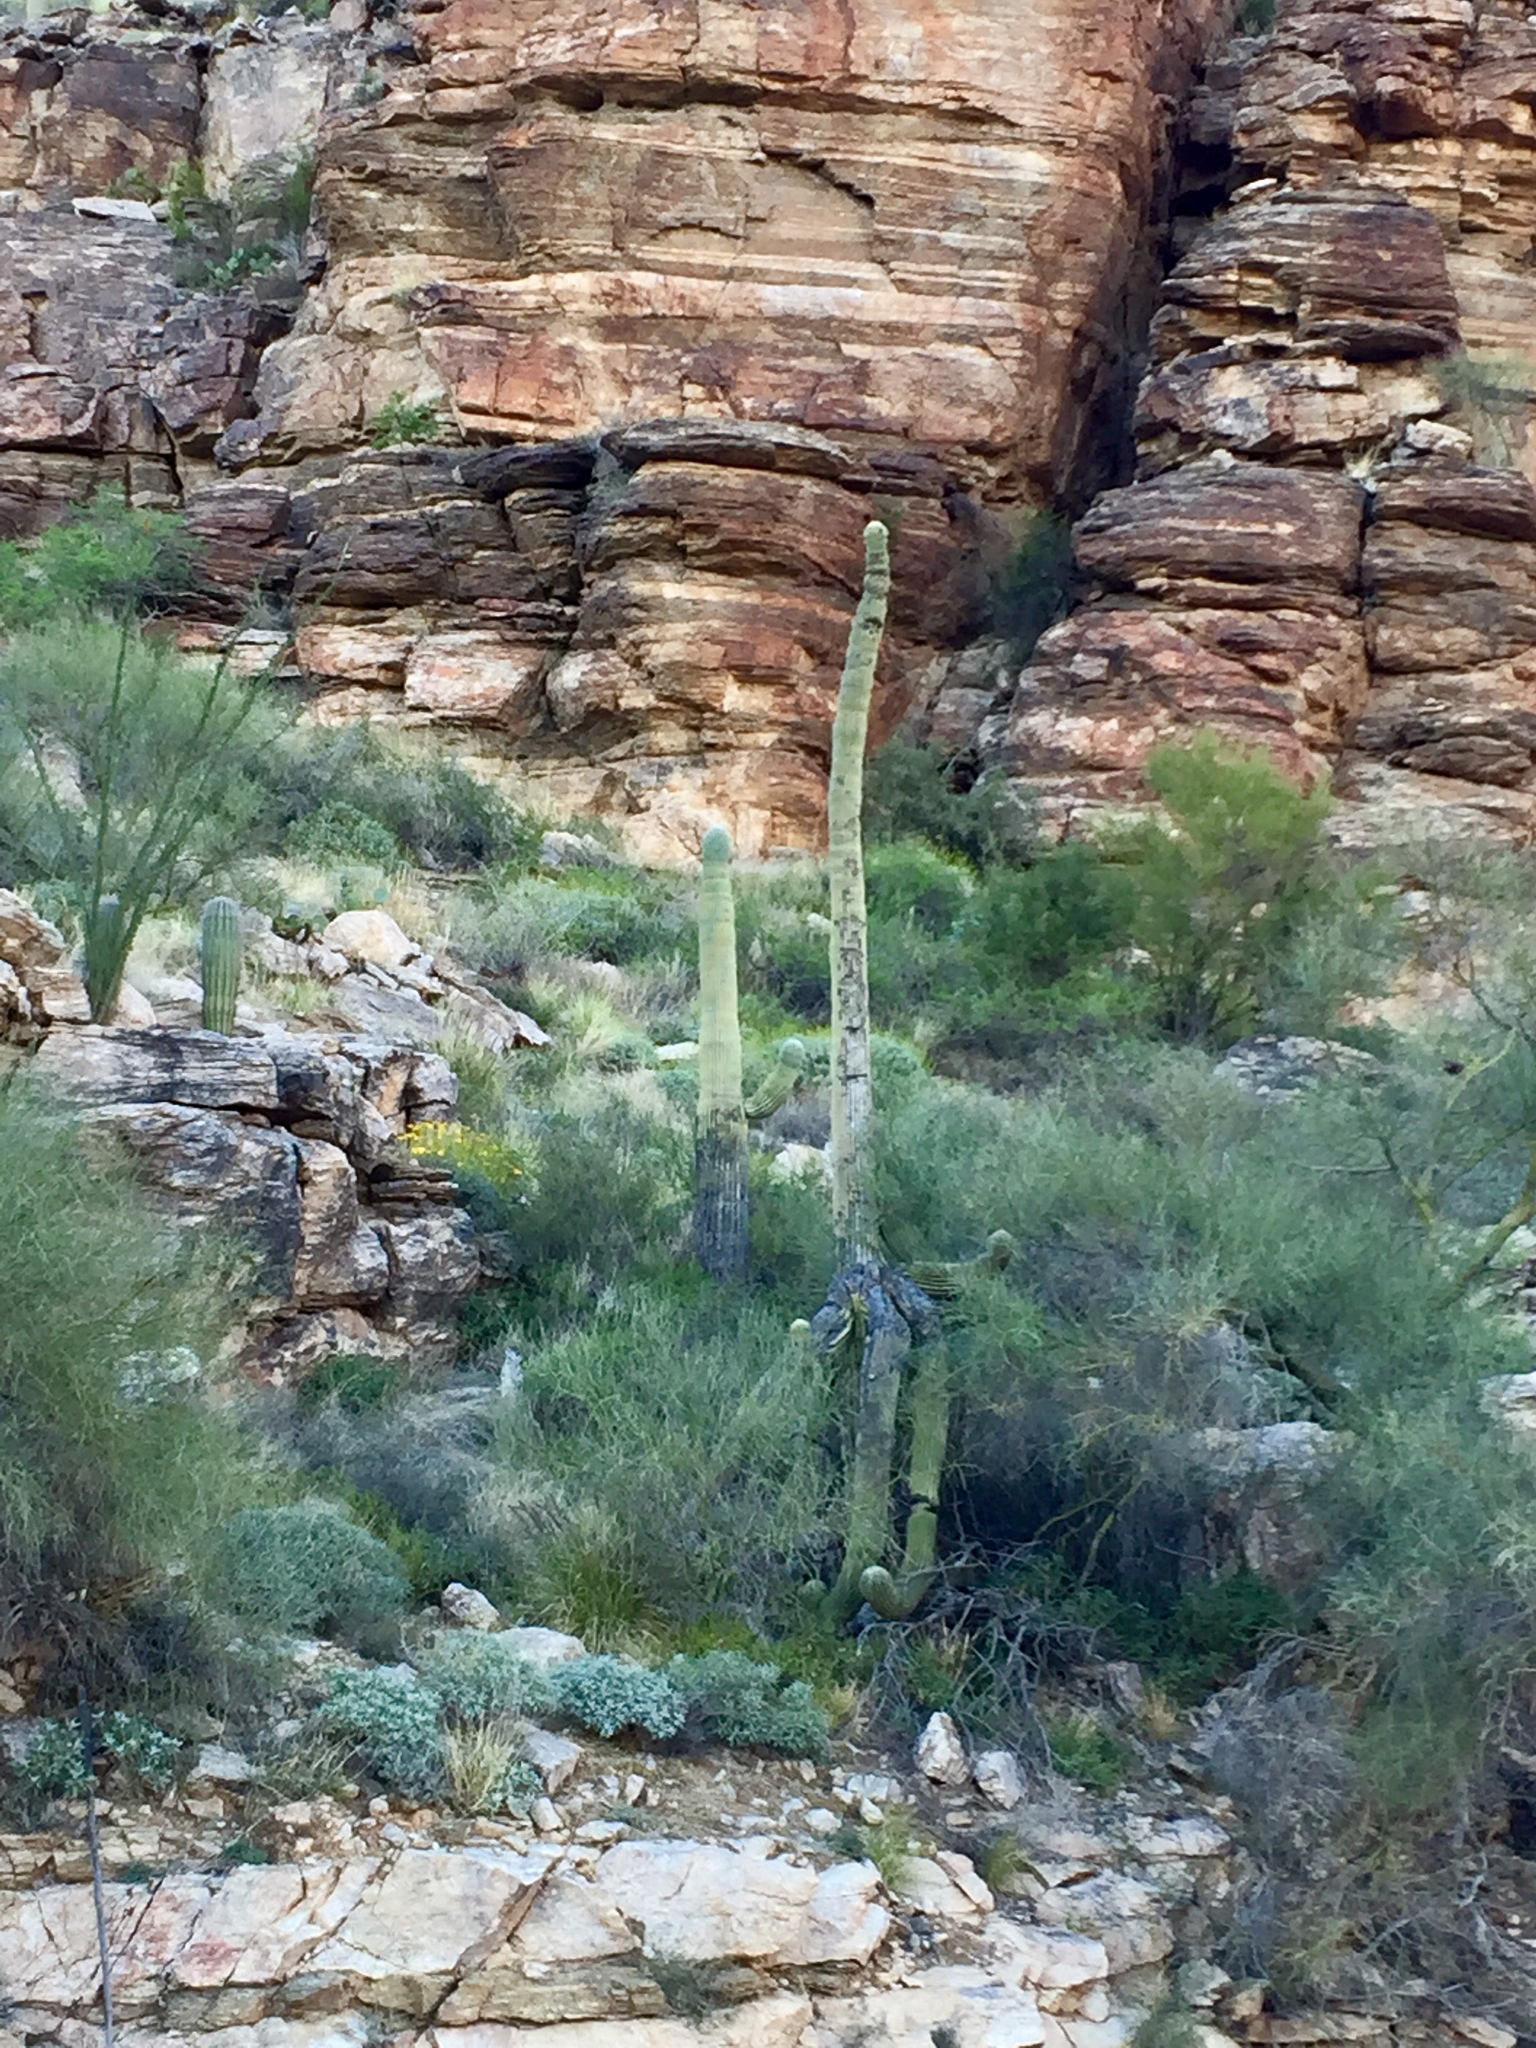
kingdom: Plantae
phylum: Tracheophyta
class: Magnoliopsida
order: Caryophyllales
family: Cactaceae
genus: Carnegiea
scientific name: Carnegiea gigantea
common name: Saguaro
